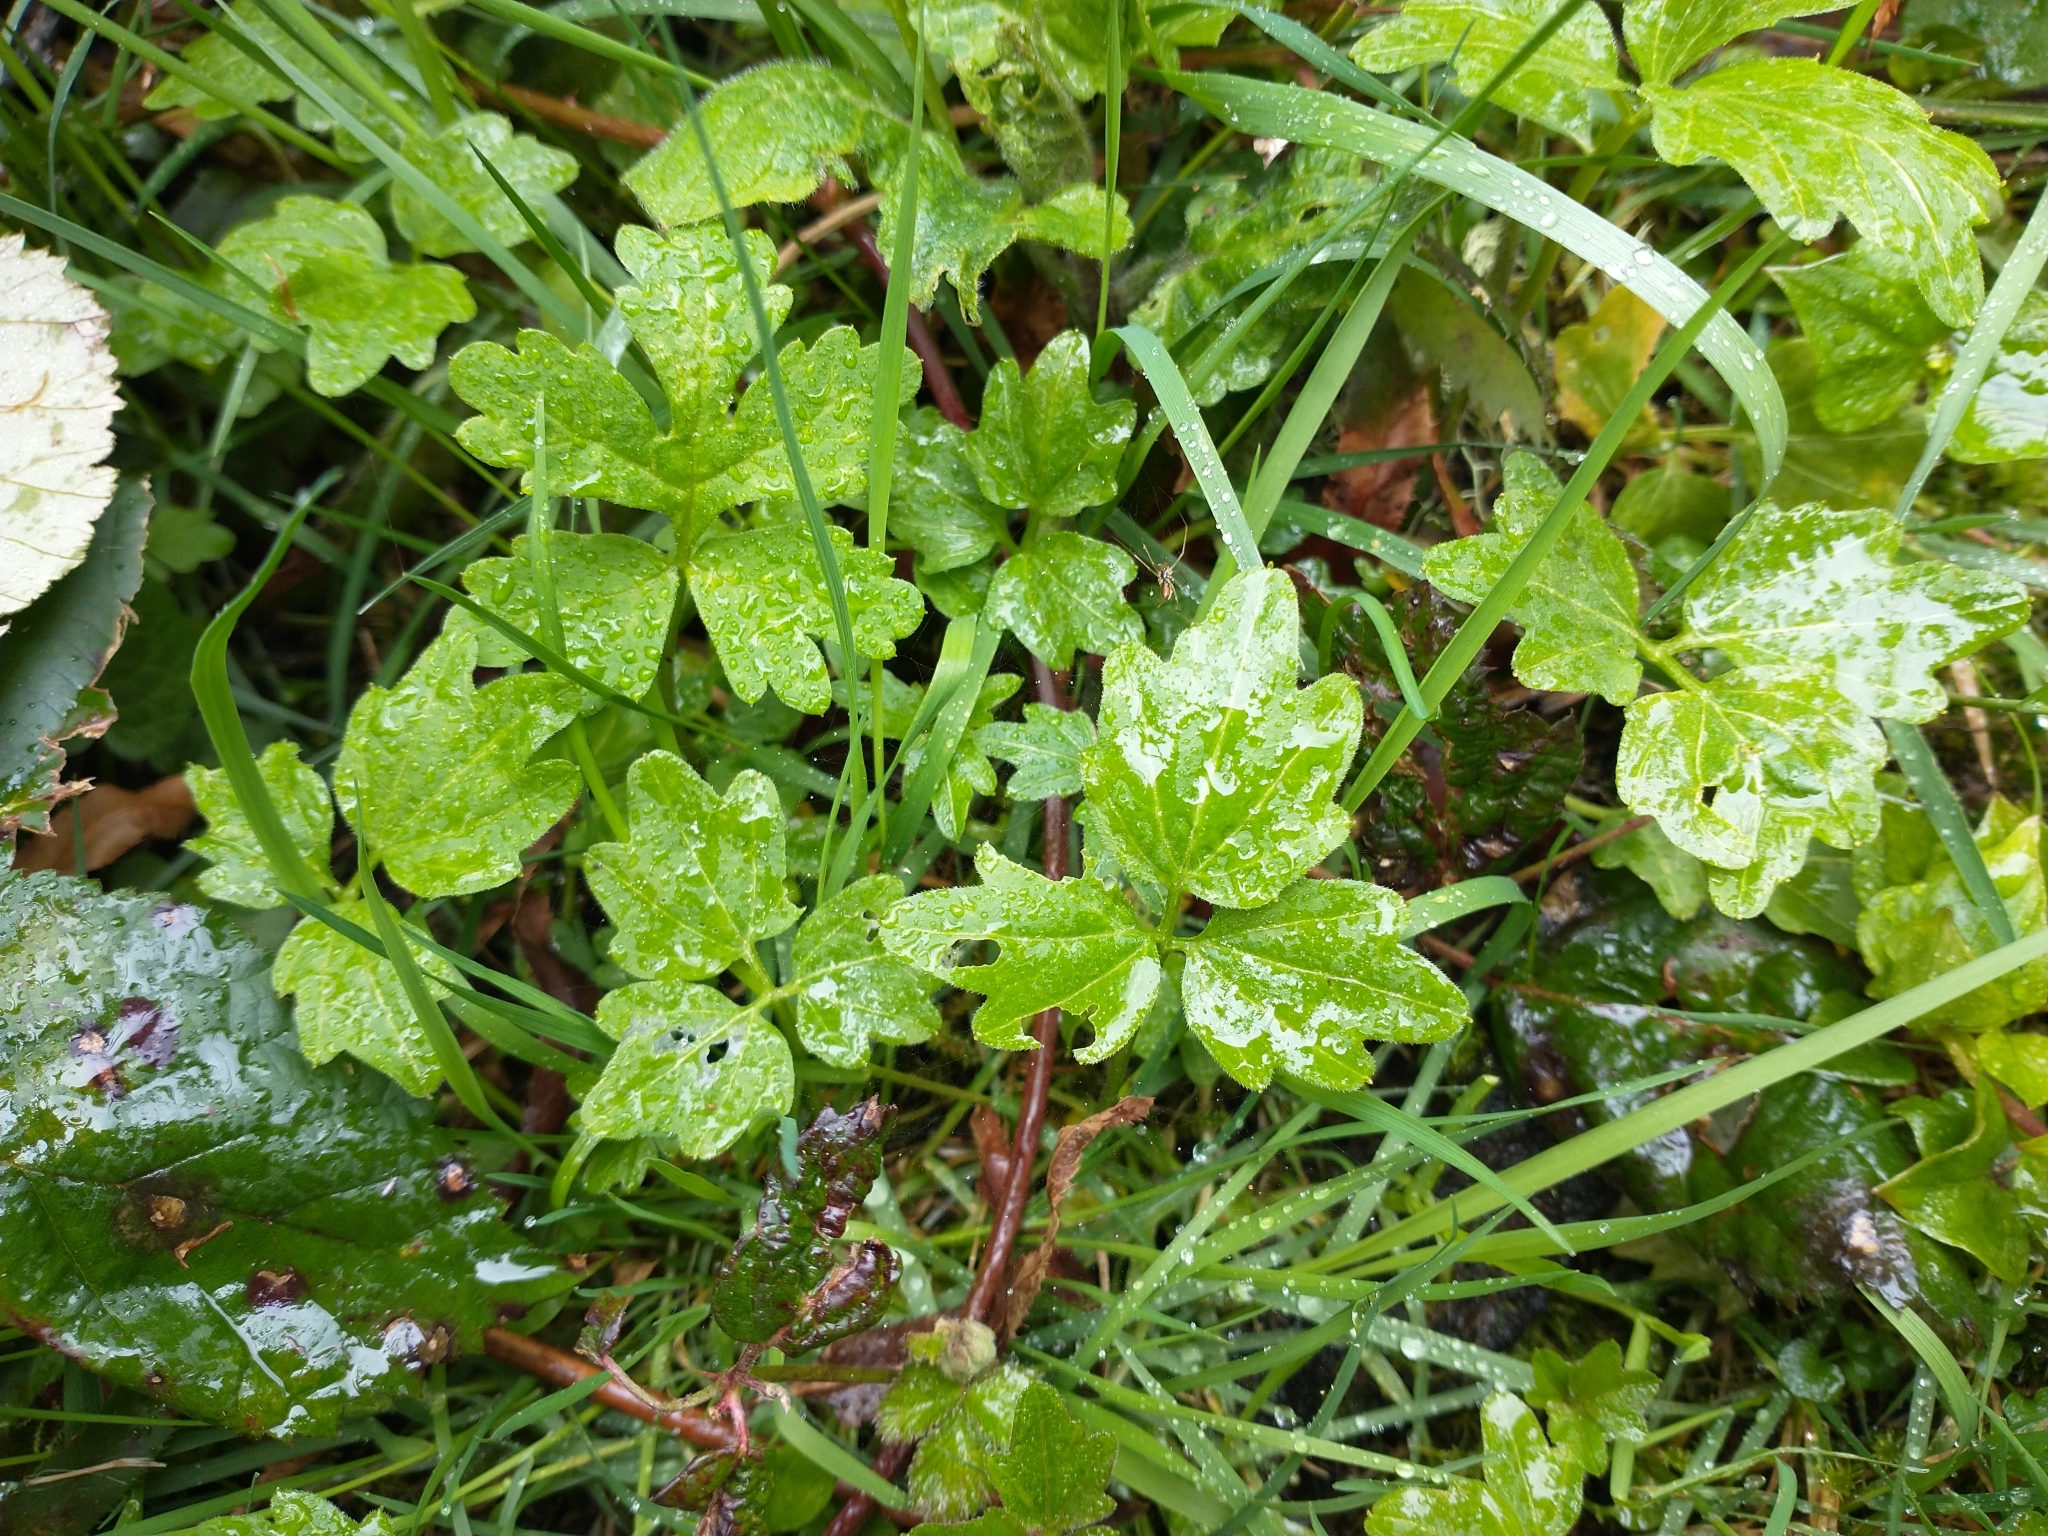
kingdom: Plantae
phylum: Tracheophyta
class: Magnoliopsida
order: Brassicales
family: Brassicaceae
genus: Cardamine
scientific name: Cardamine angulata
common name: Angled bittercress
